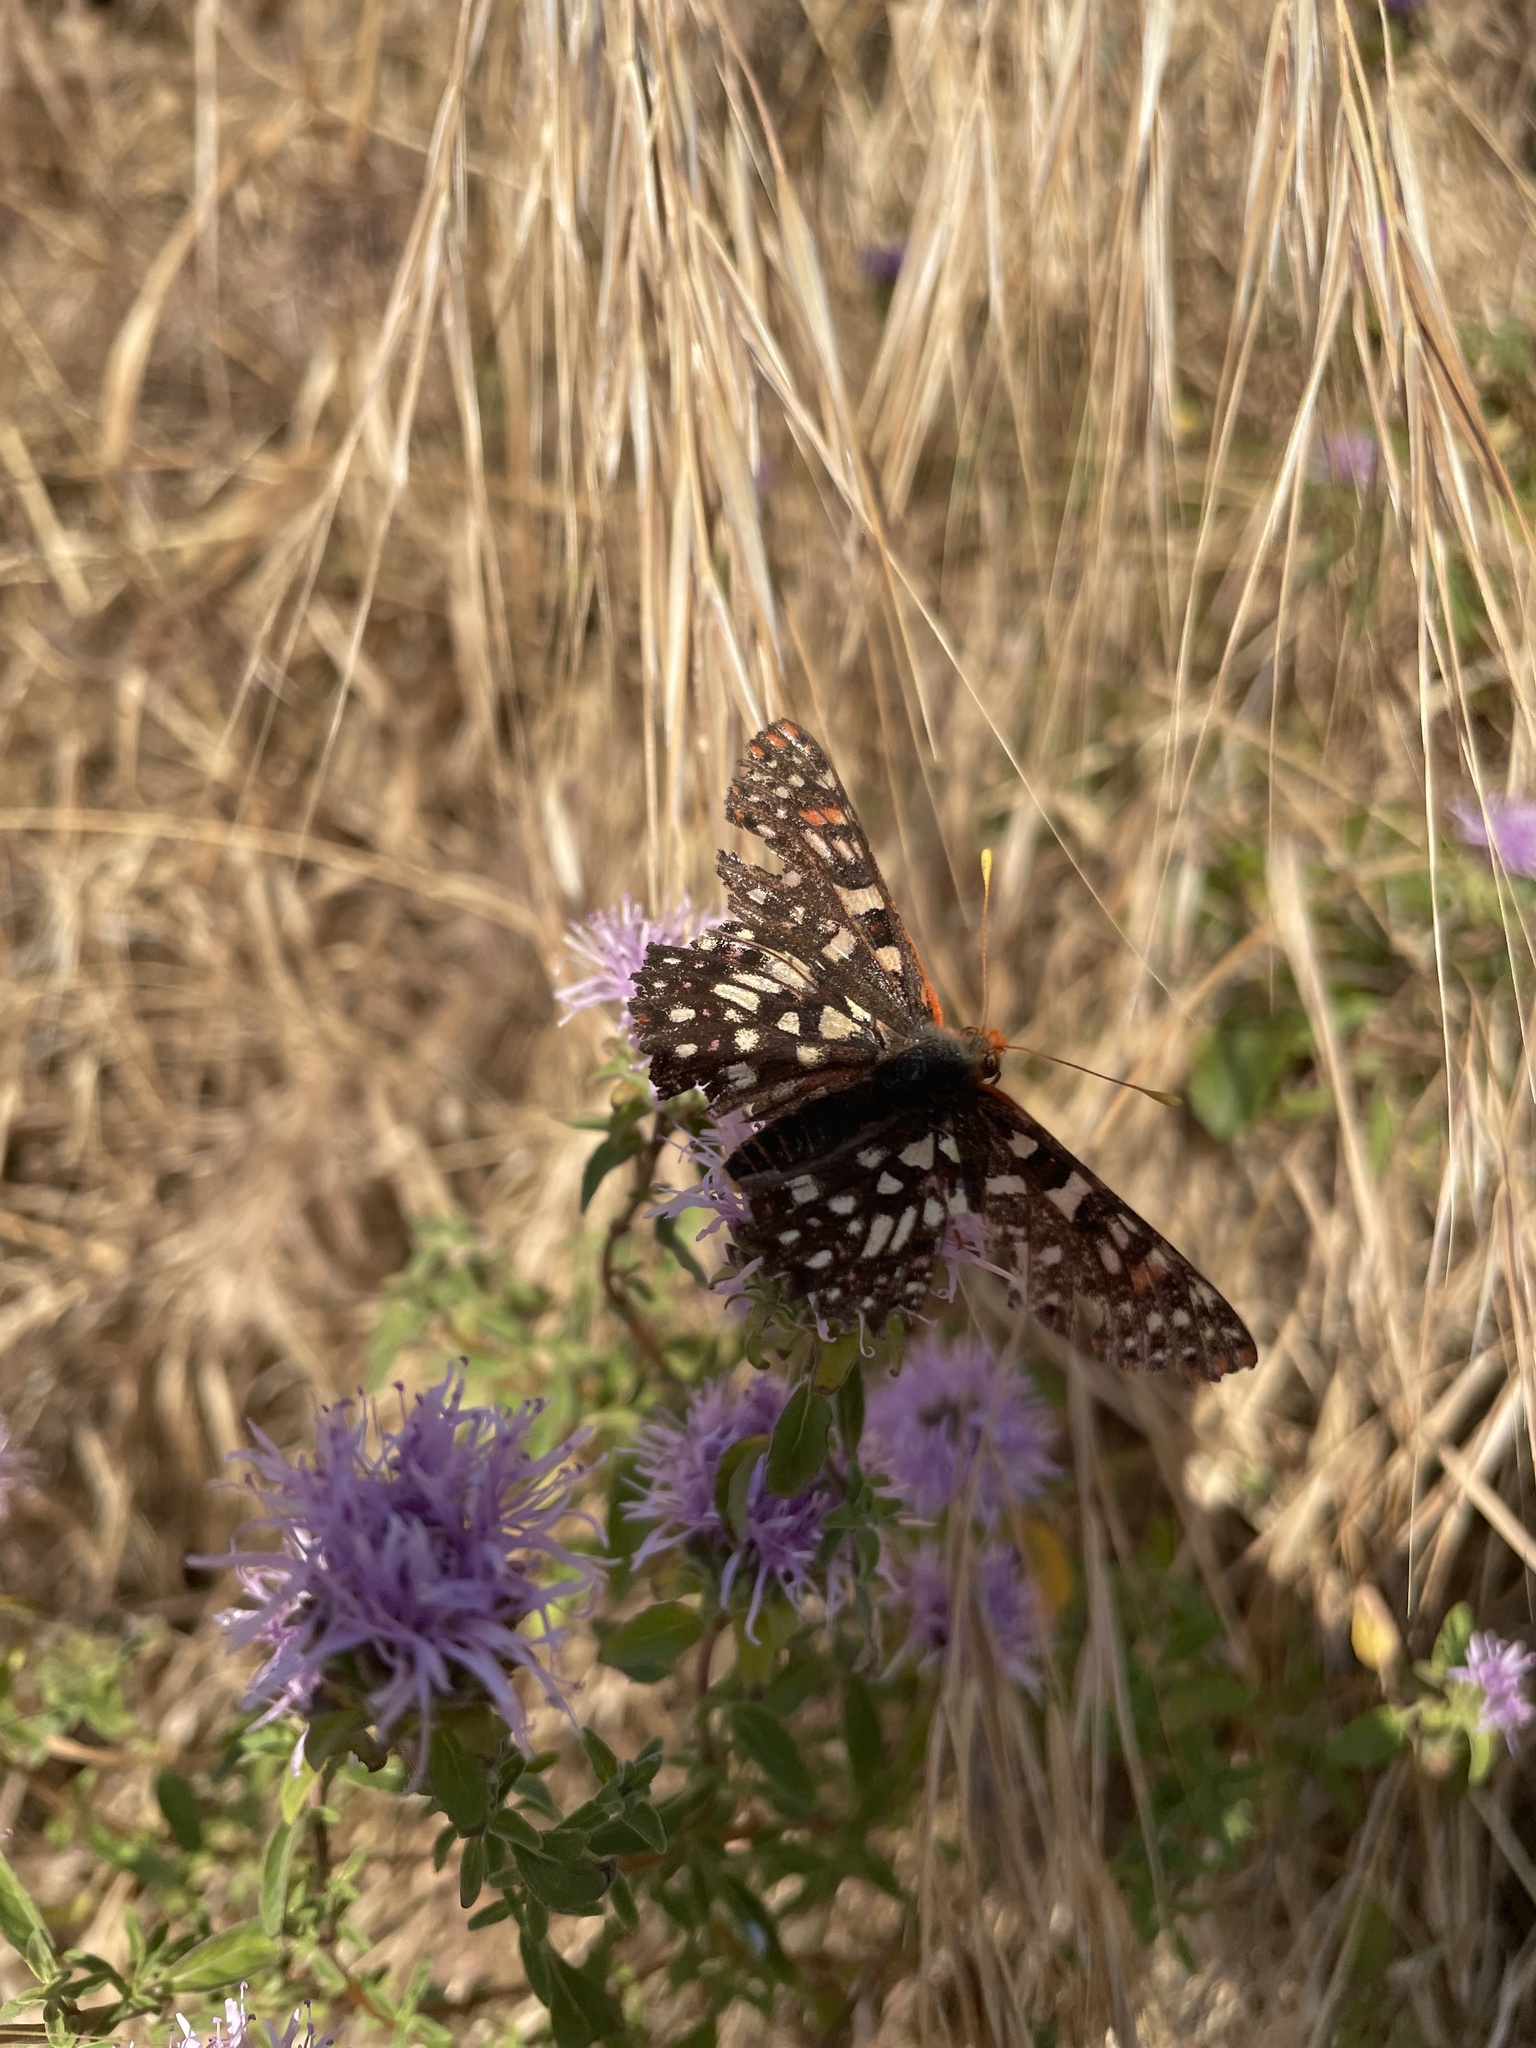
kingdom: Animalia
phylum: Arthropoda
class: Insecta
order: Lepidoptera
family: Nymphalidae
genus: Occidryas
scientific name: Occidryas chalcedona
